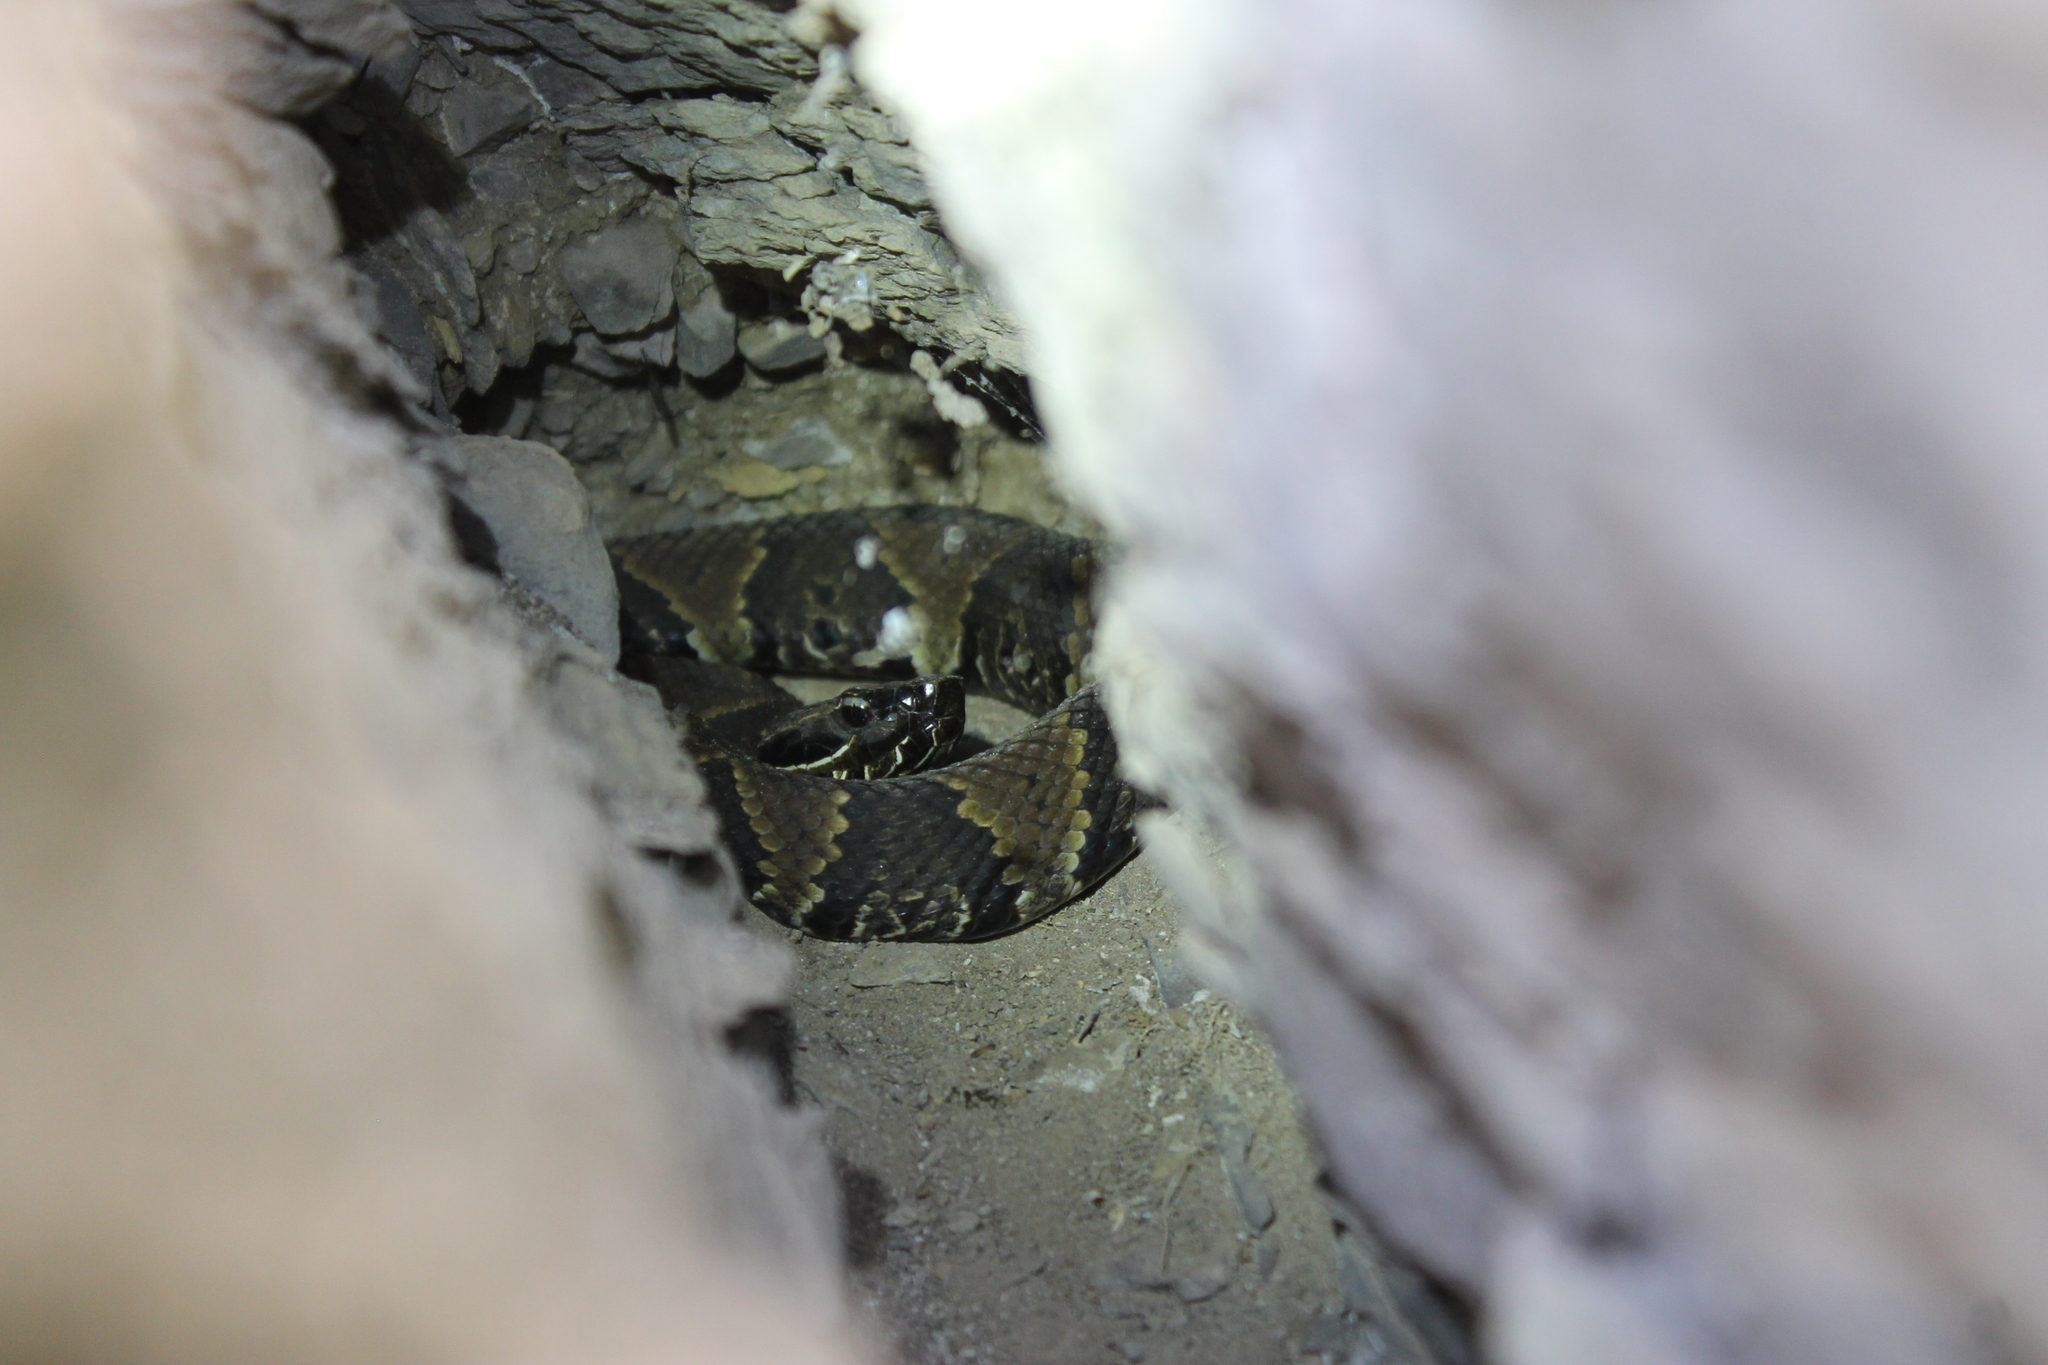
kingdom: Animalia
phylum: Chordata
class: Squamata
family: Viperidae
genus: Agkistrodon
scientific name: Agkistrodon piscivorus
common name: Cottonmouth
